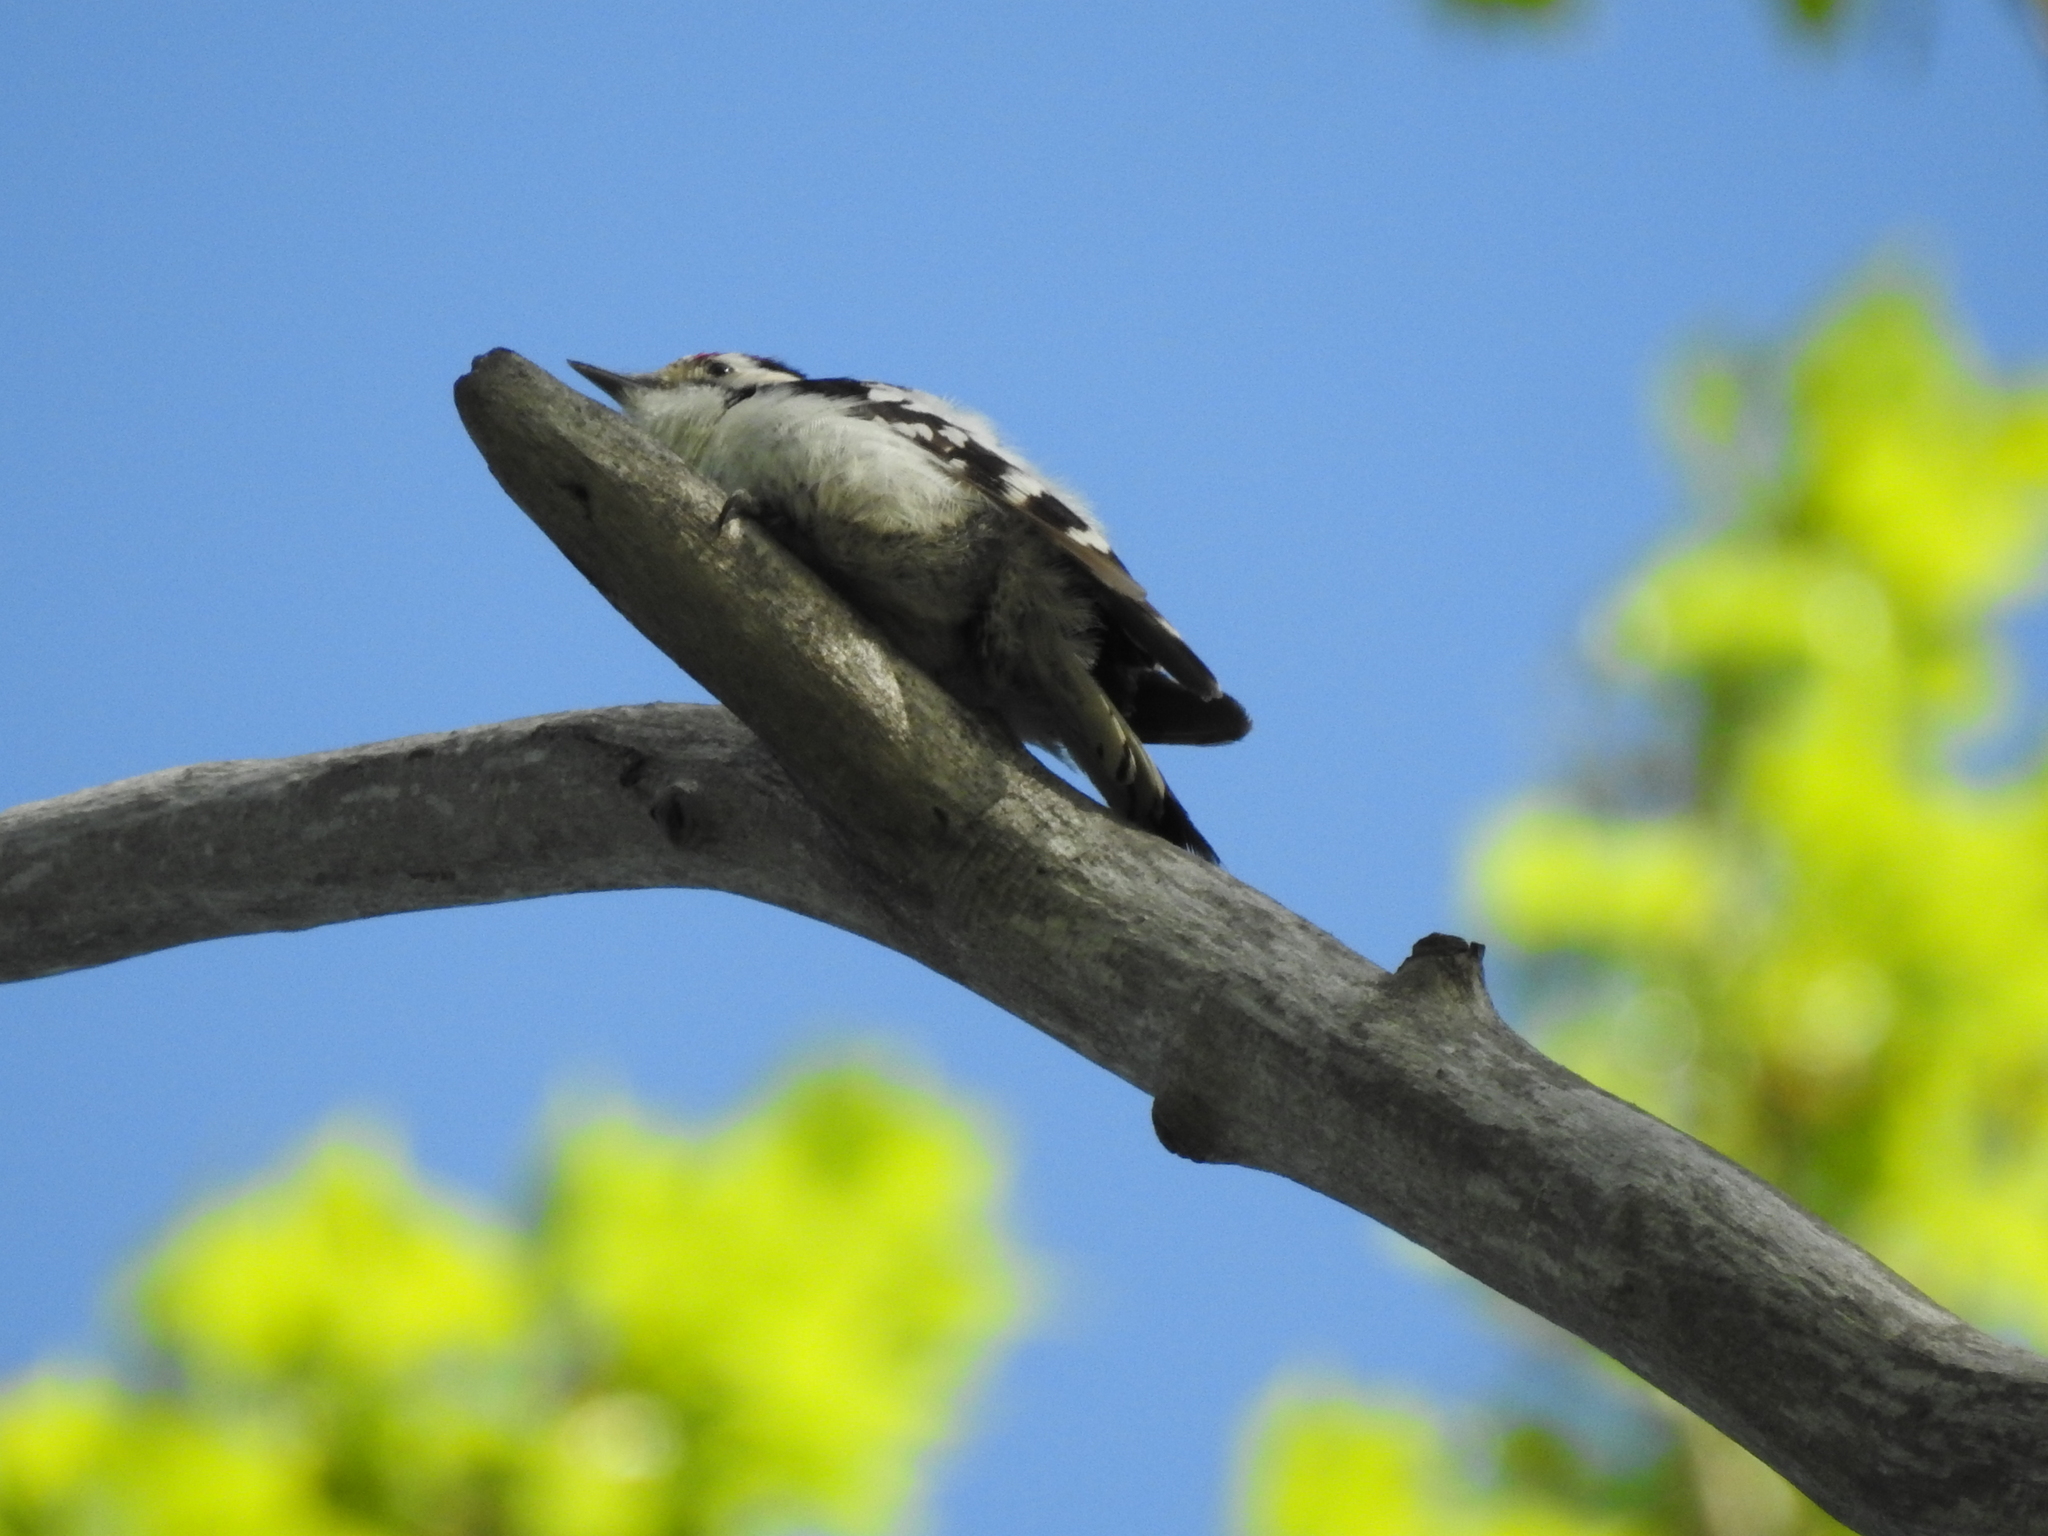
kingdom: Animalia
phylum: Chordata
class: Aves
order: Piciformes
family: Picidae
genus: Dryobates
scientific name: Dryobates minor
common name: Lesser spotted woodpecker
